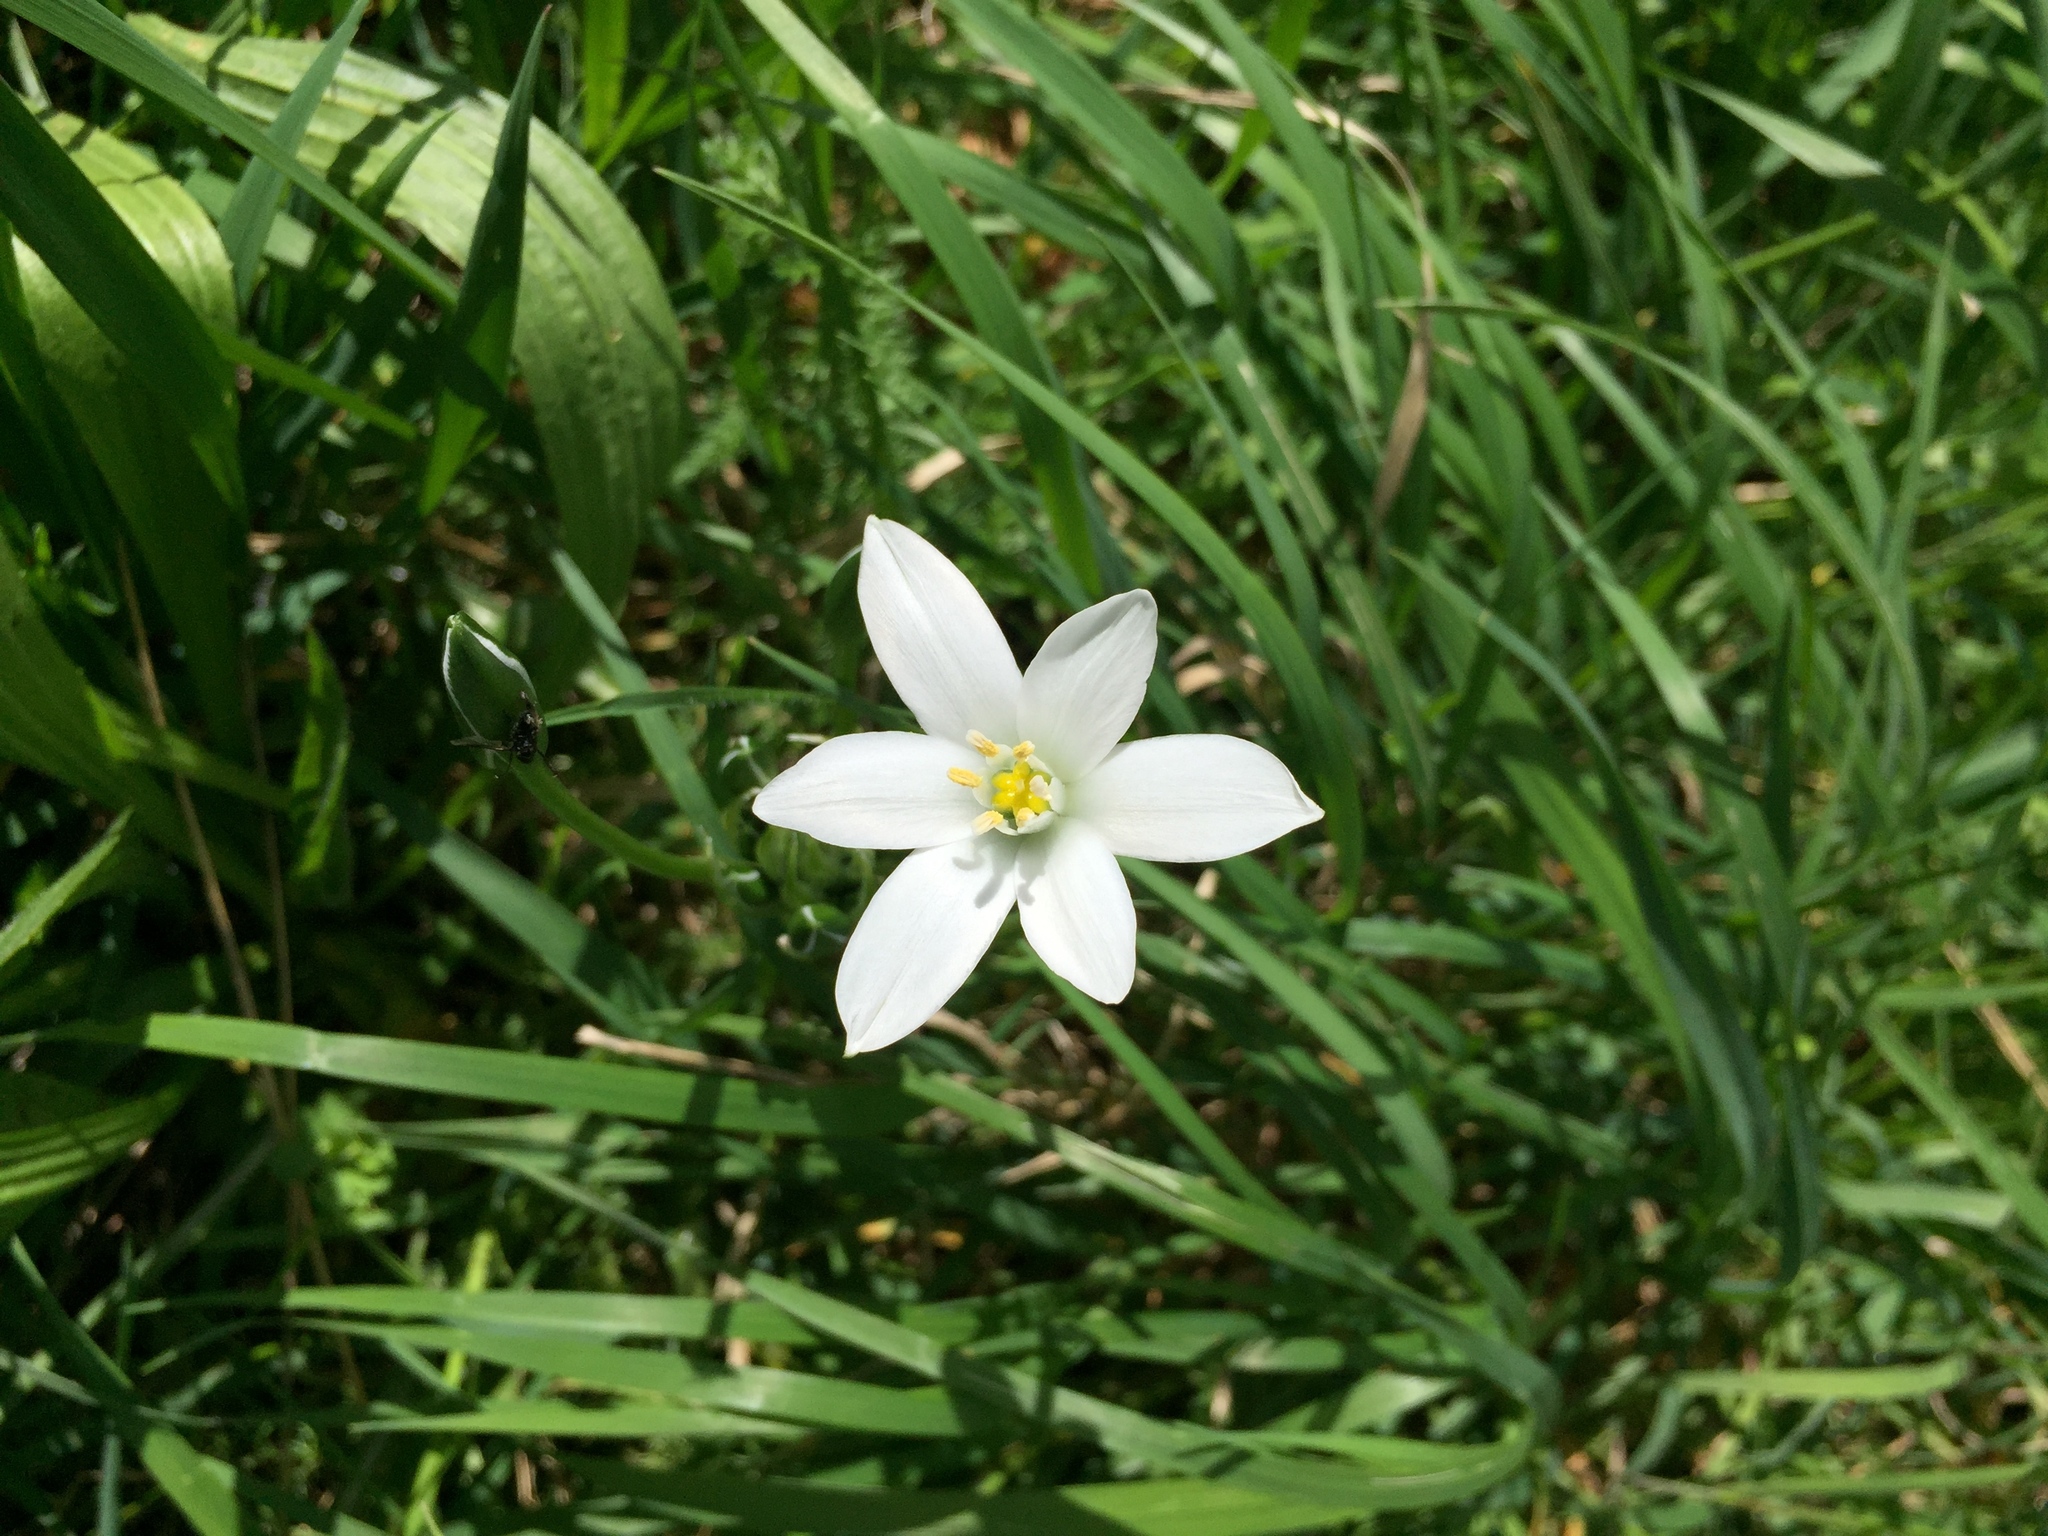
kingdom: Plantae
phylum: Tracheophyta
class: Liliopsida
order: Asparagales
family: Asparagaceae
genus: Ornithogalum
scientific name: Ornithogalum umbellatum
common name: Garden star-of-bethlehem
